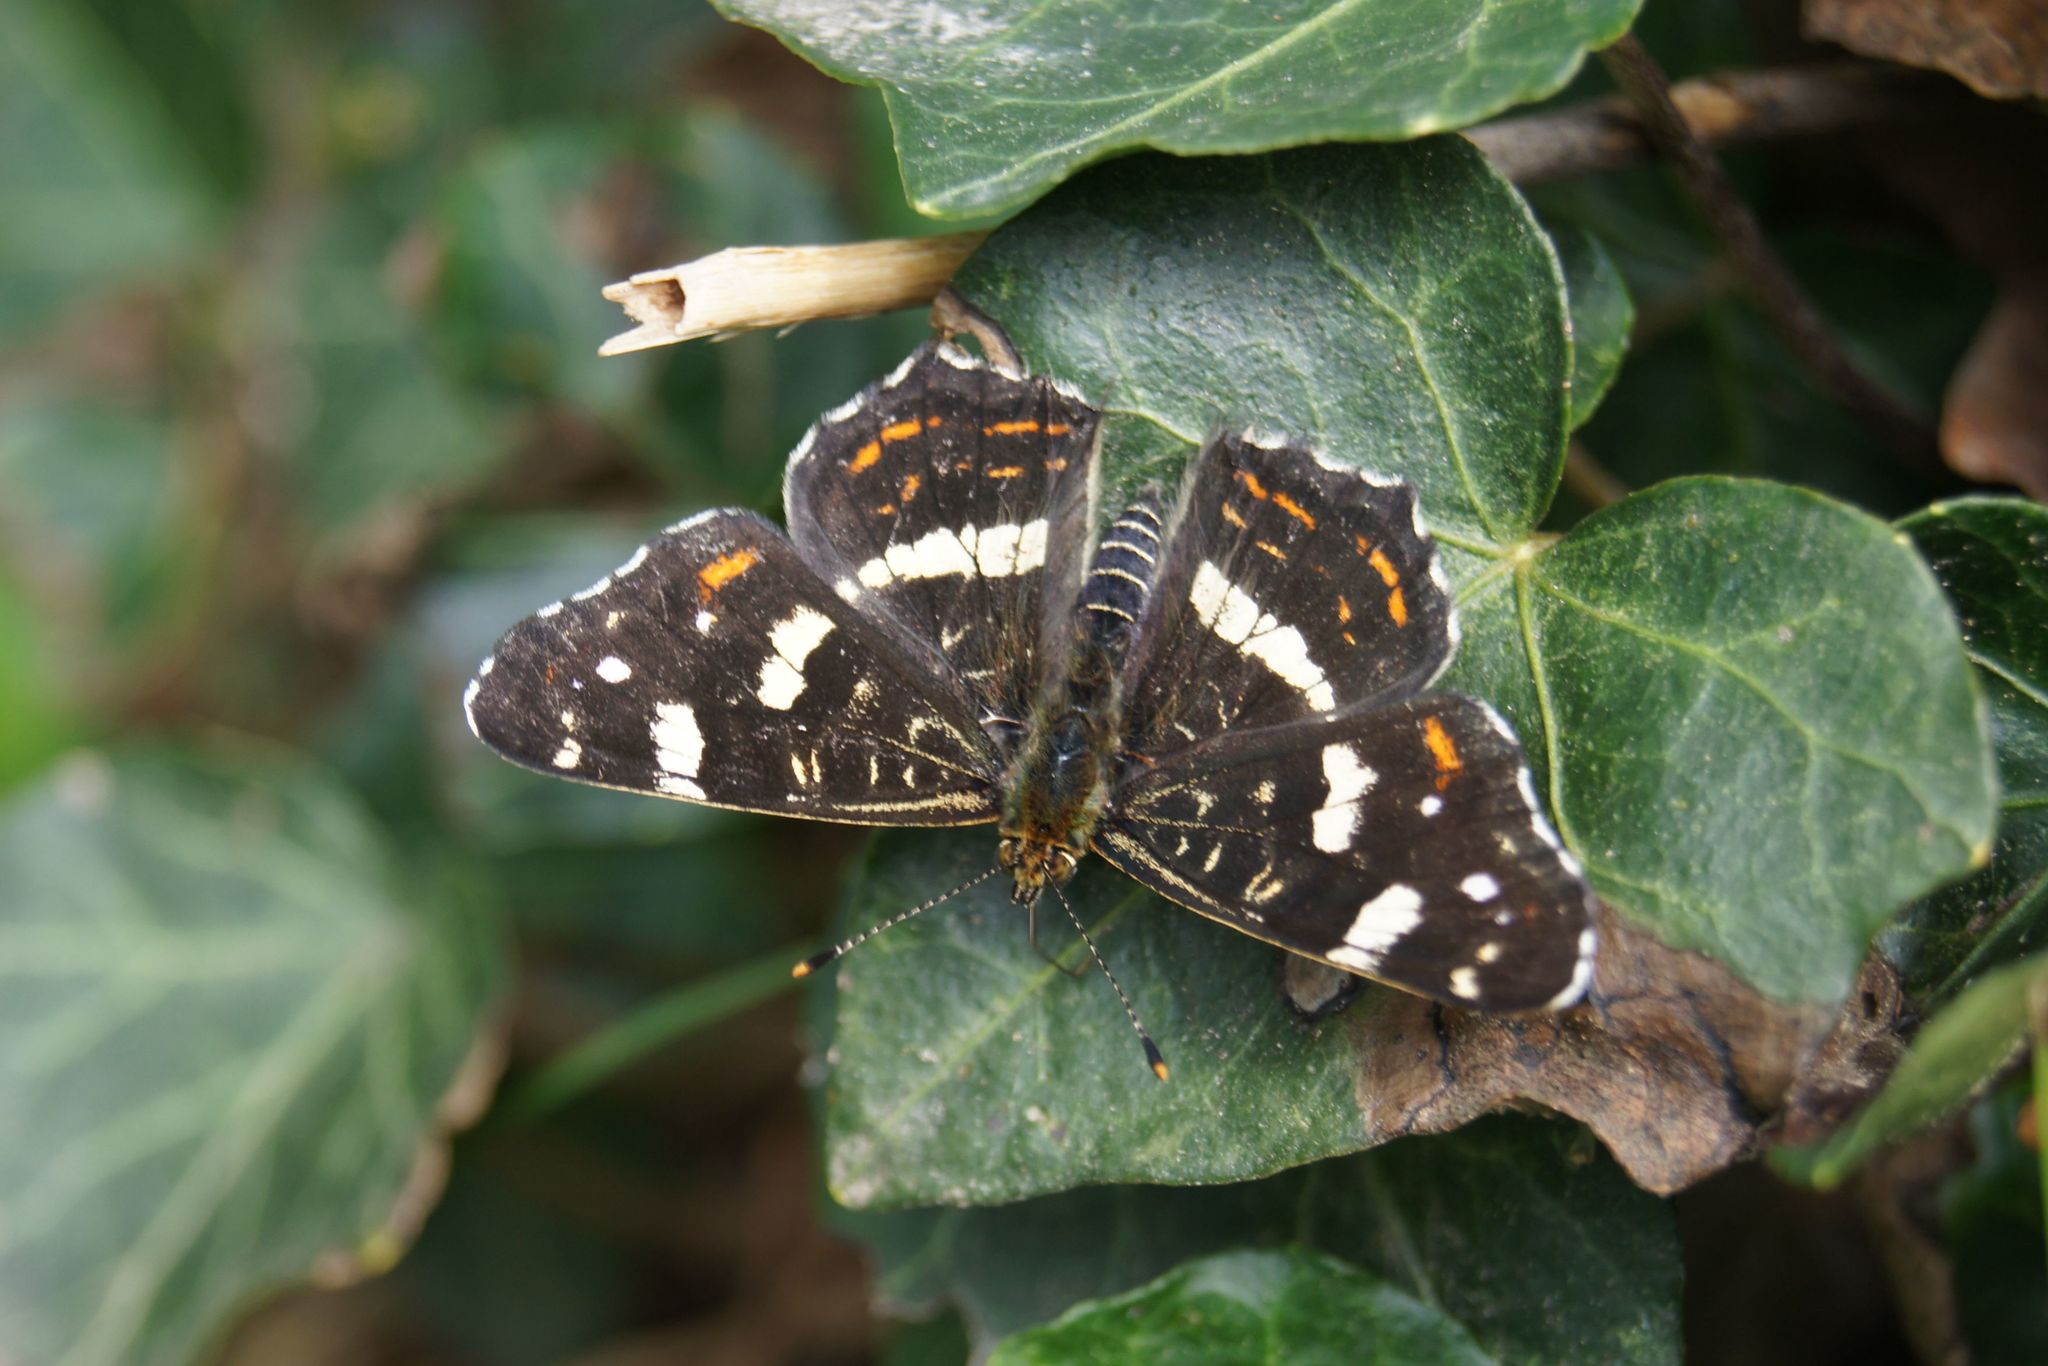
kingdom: Animalia
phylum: Arthropoda
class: Insecta
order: Lepidoptera
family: Nymphalidae
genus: Araschnia
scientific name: Araschnia levana
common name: Map butterfly
